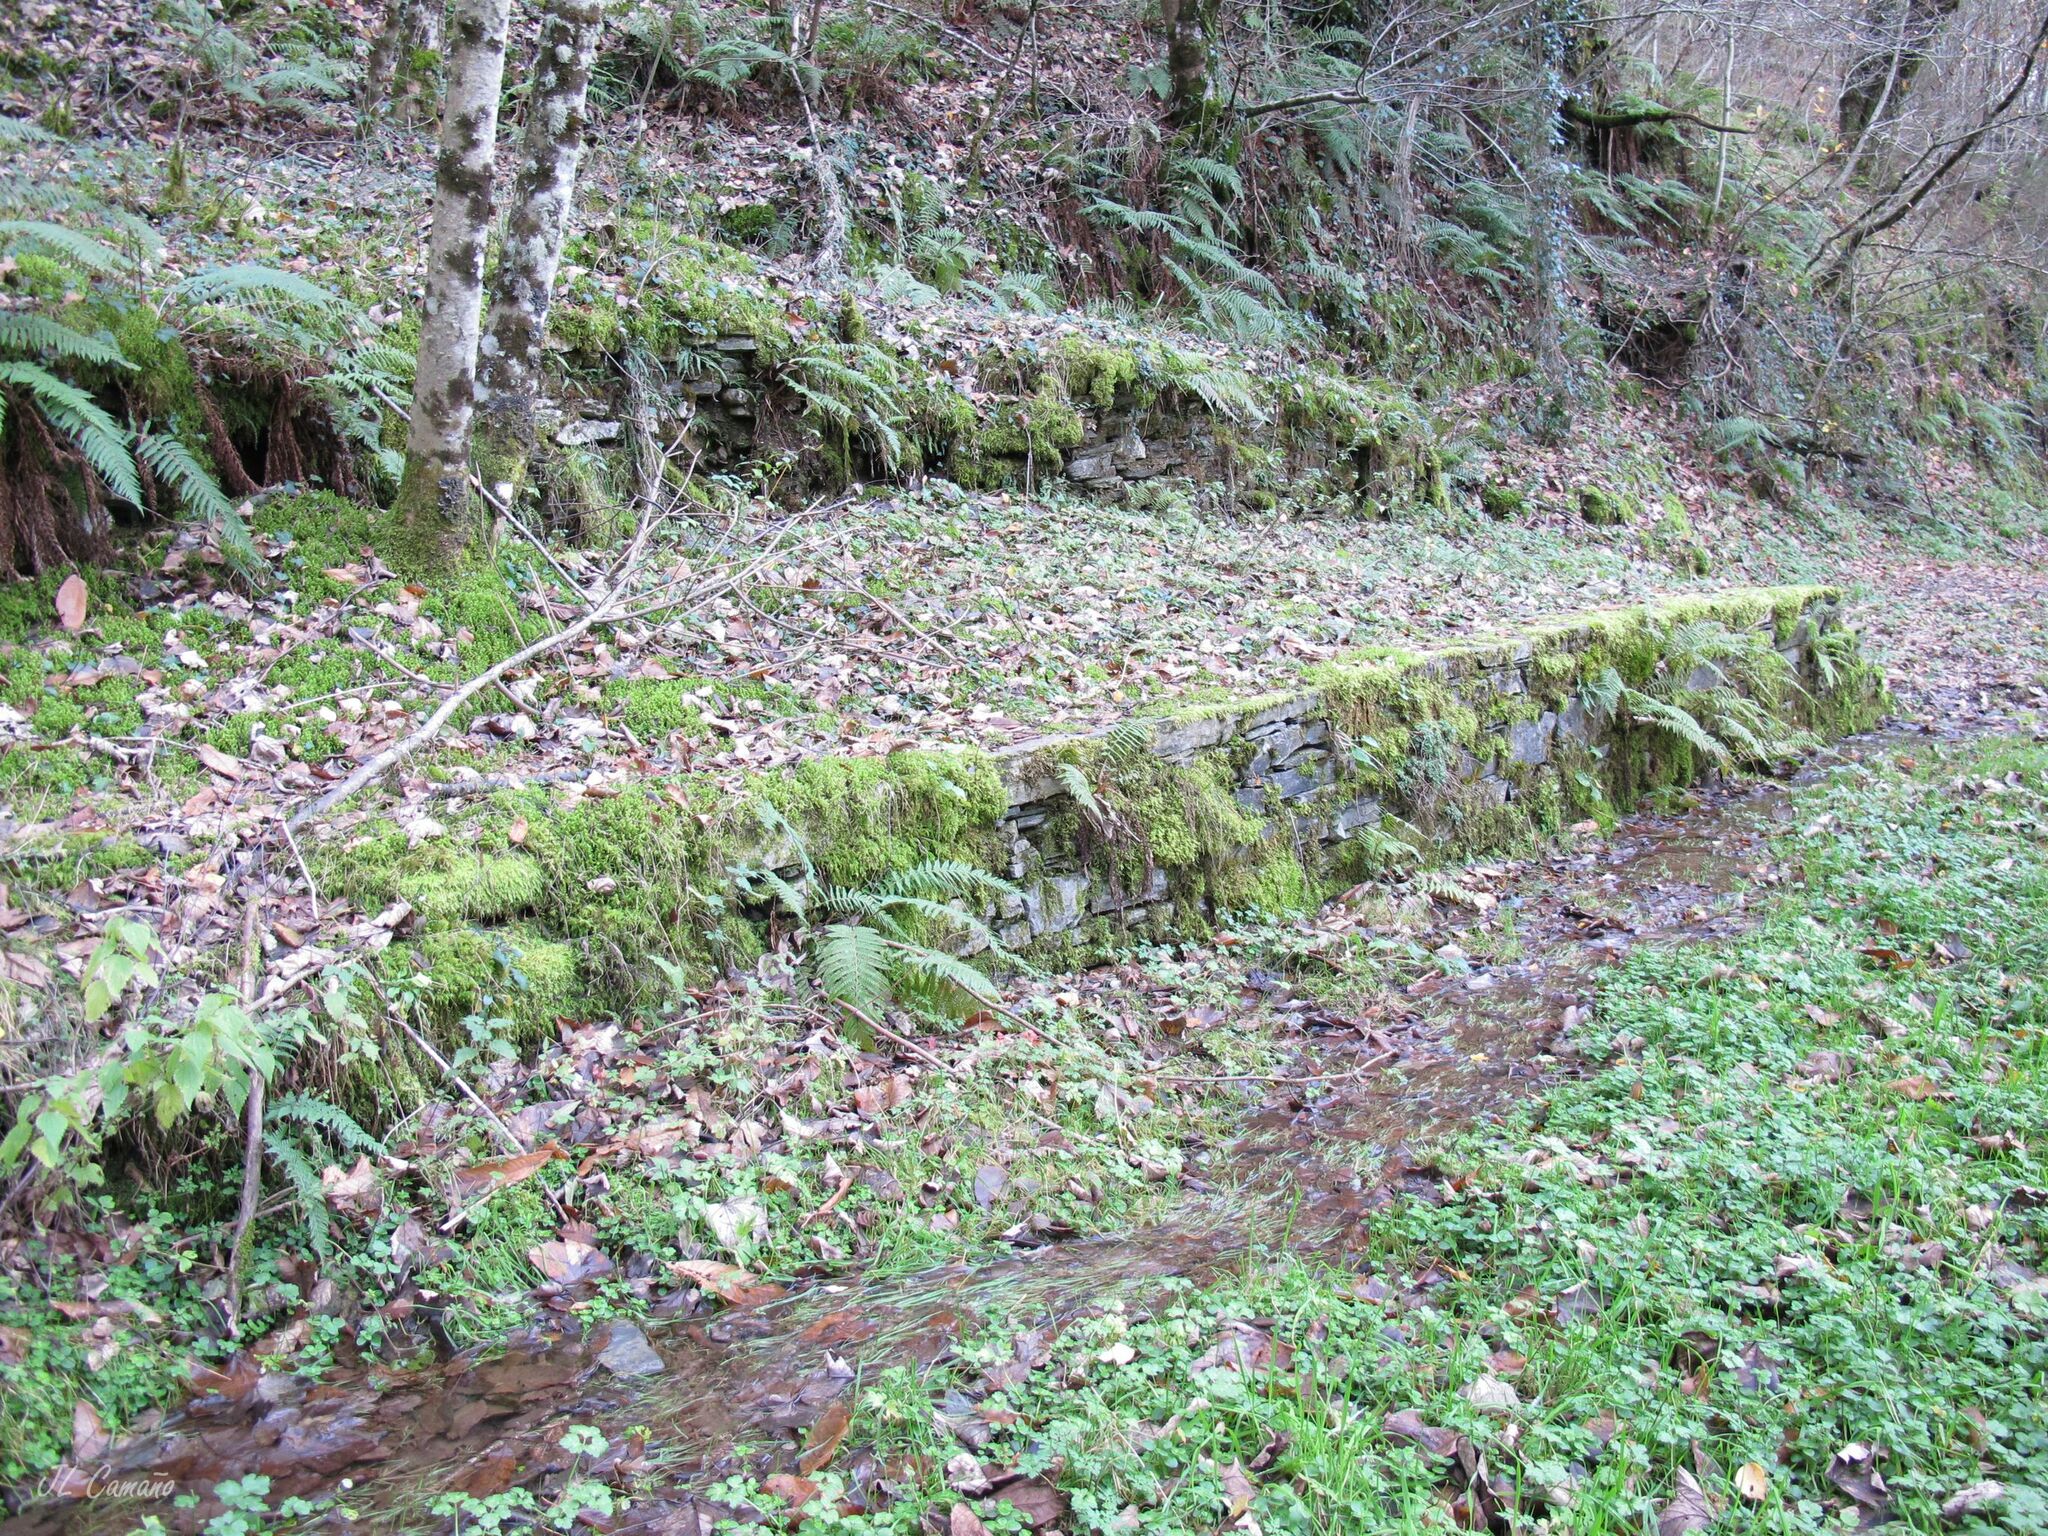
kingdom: Plantae
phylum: Marchantiophyta
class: Jungermanniopsida
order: Pelliales
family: Pelliaceae
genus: Apopellia
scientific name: Apopellia endiviifolia
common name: Endive pellia
